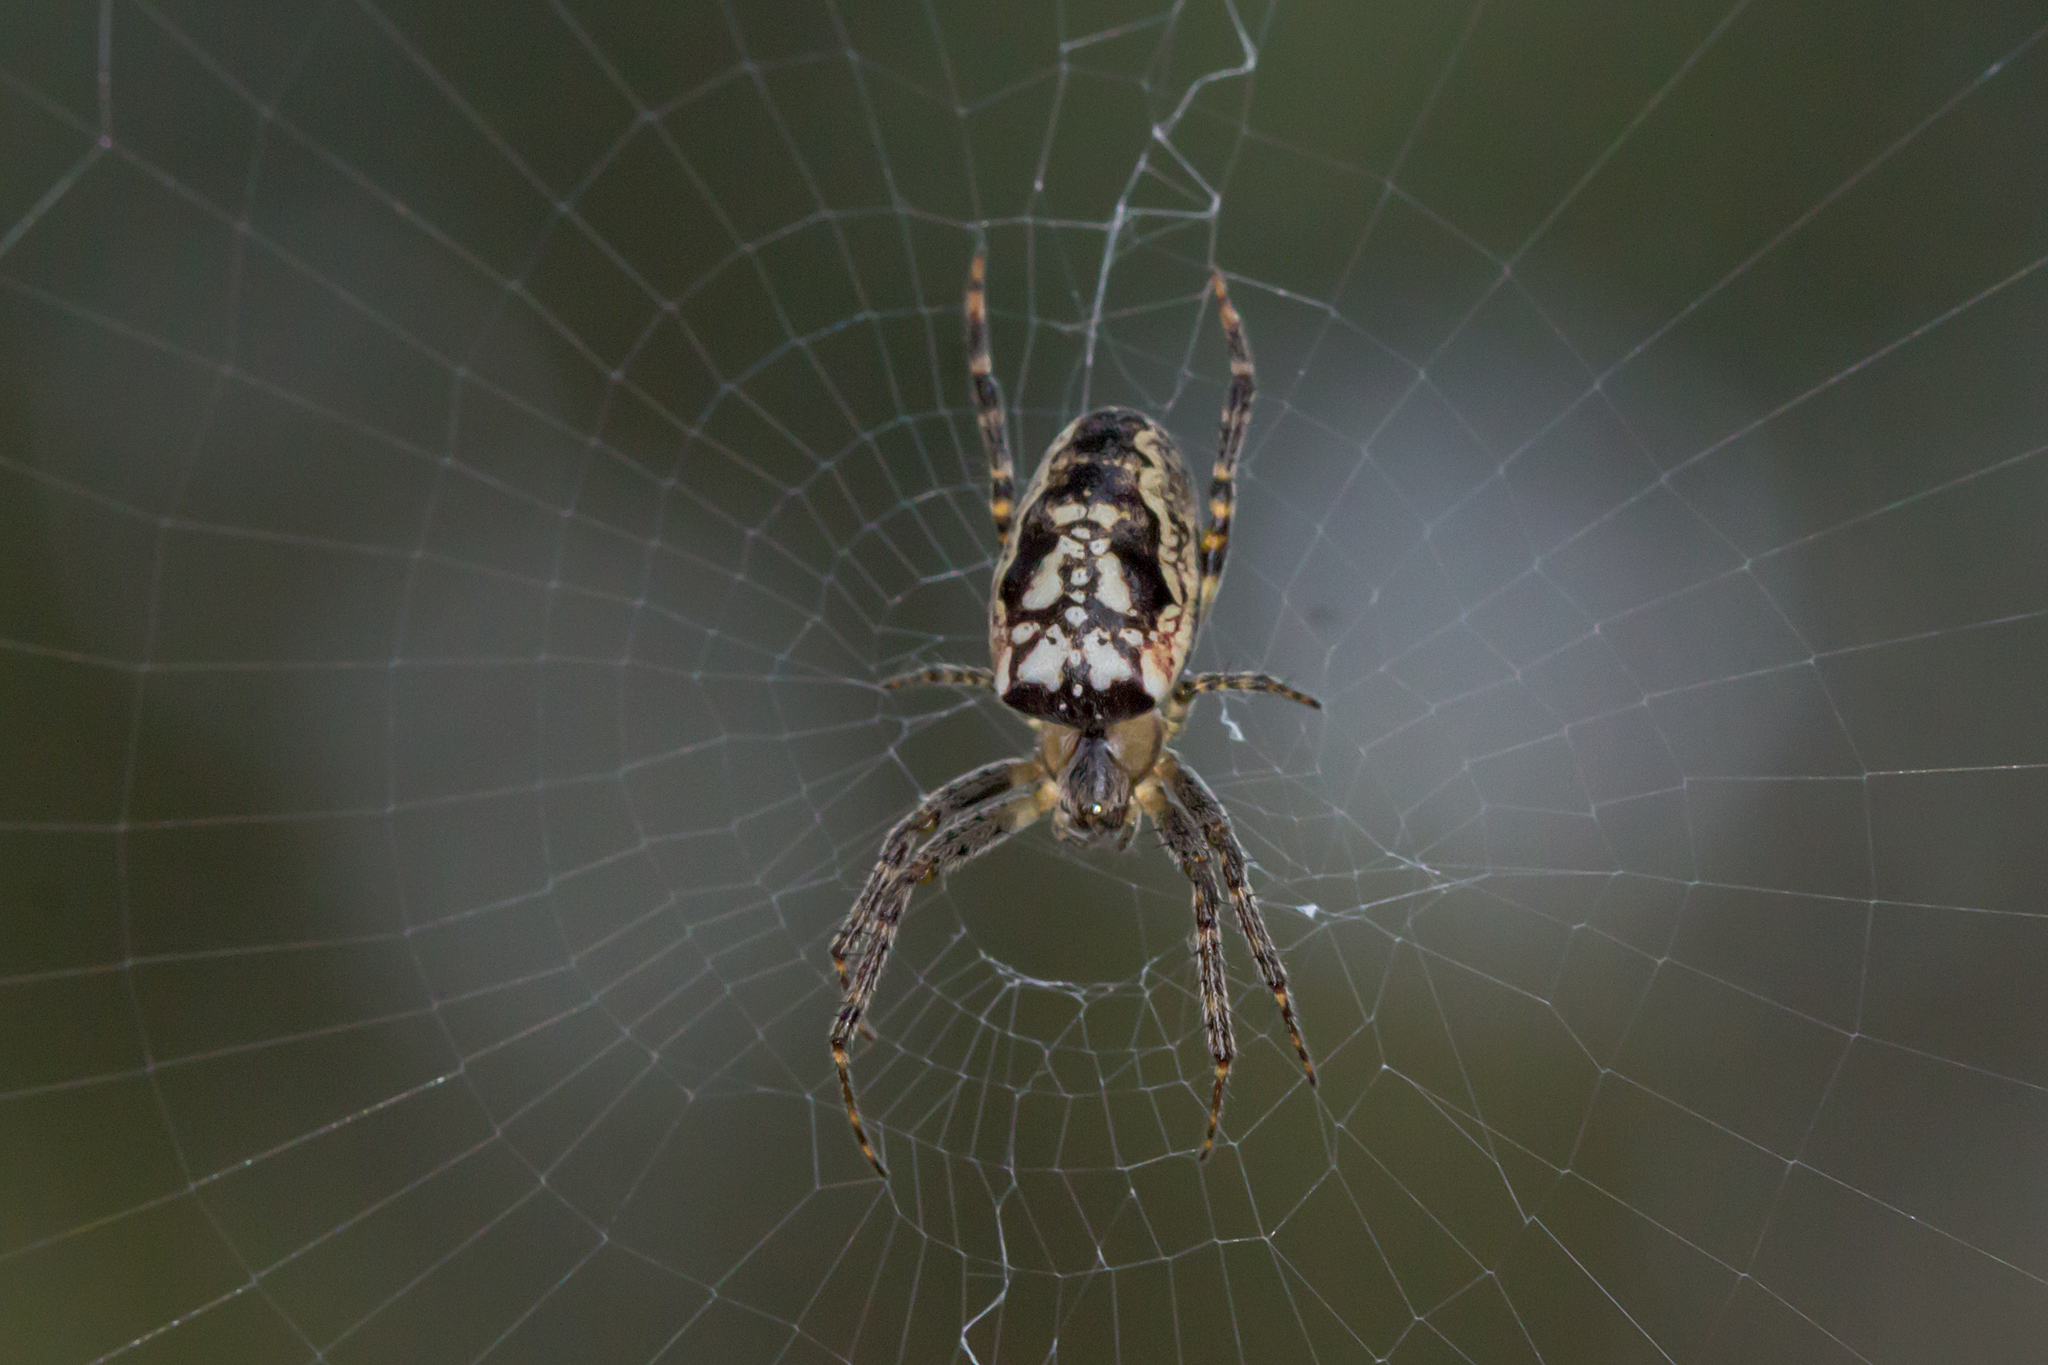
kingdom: Animalia
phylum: Arthropoda
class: Arachnida
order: Araneae
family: Araneidae
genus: Plebs
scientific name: Plebs eburnus
